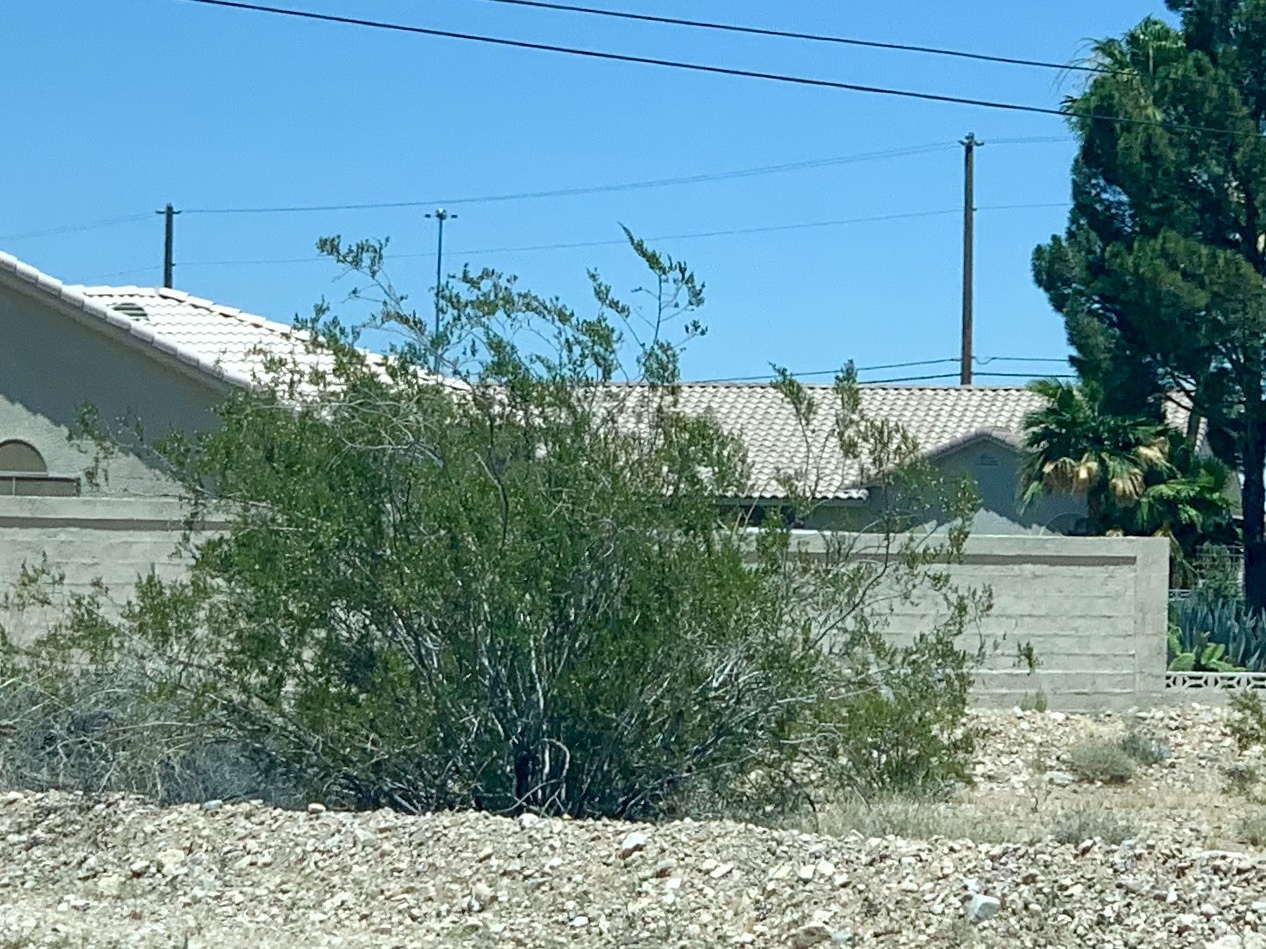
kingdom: Plantae
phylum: Tracheophyta
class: Magnoliopsida
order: Zygophyllales
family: Zygophyllaceae
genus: Larrea
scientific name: Larrea tridentata
